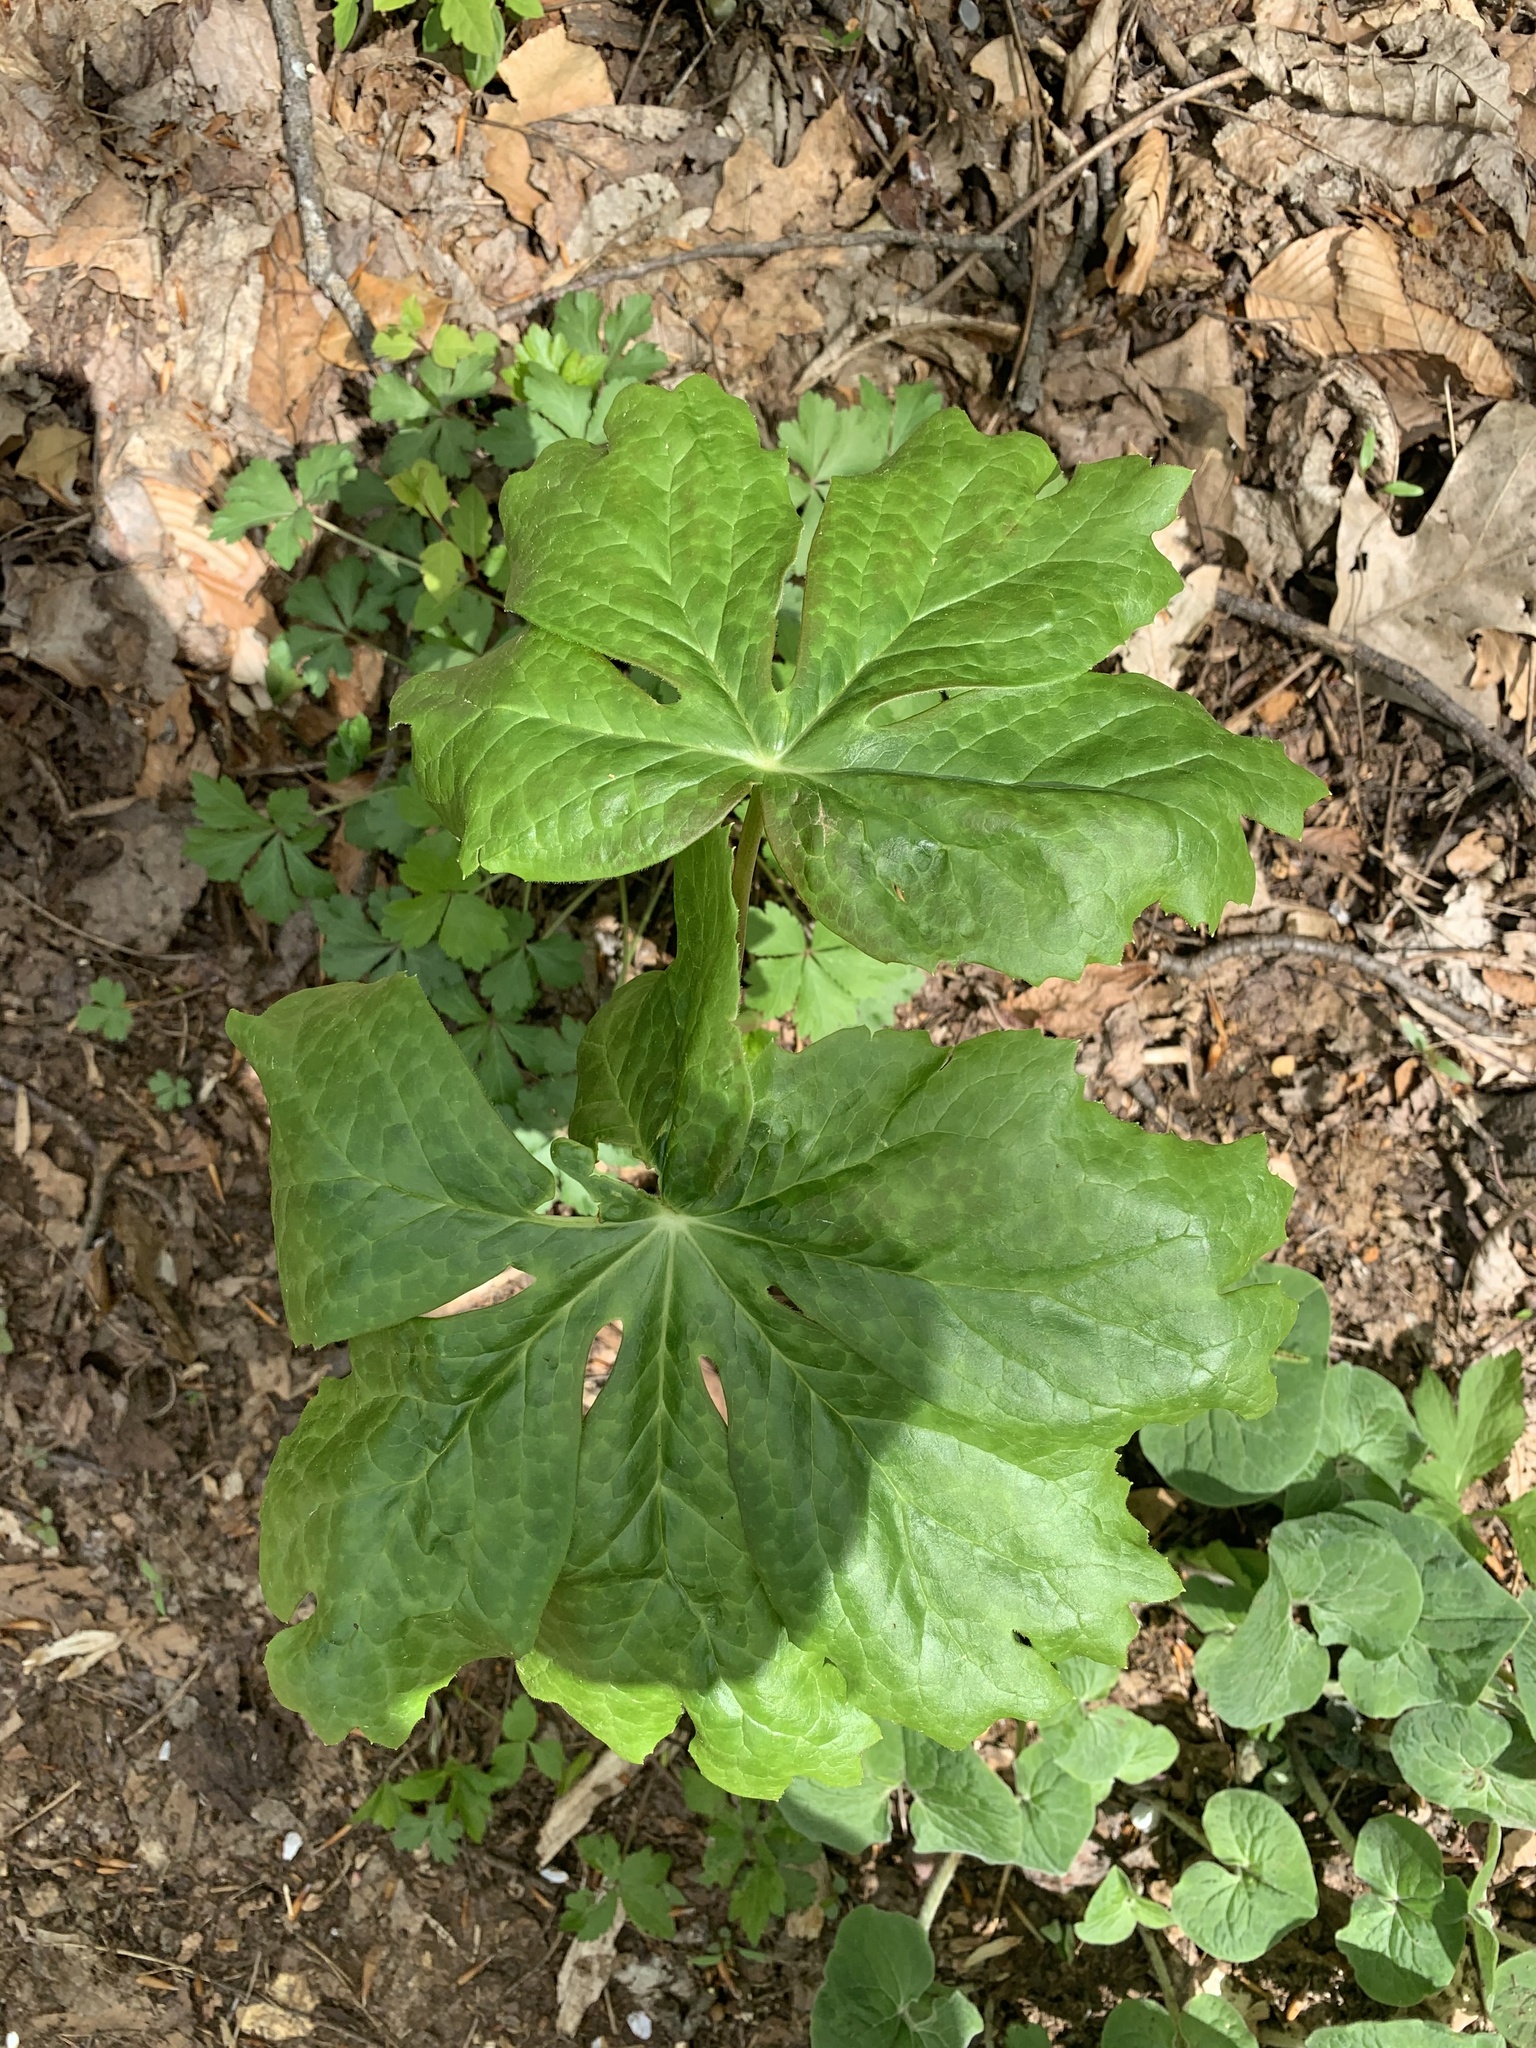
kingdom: Plantae
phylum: Tracheophyta
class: Magnoliopsida
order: Ranunculales
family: Berberidaceae
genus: Podophyllum
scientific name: Podophyllum peltatum
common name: Wild mandrake
